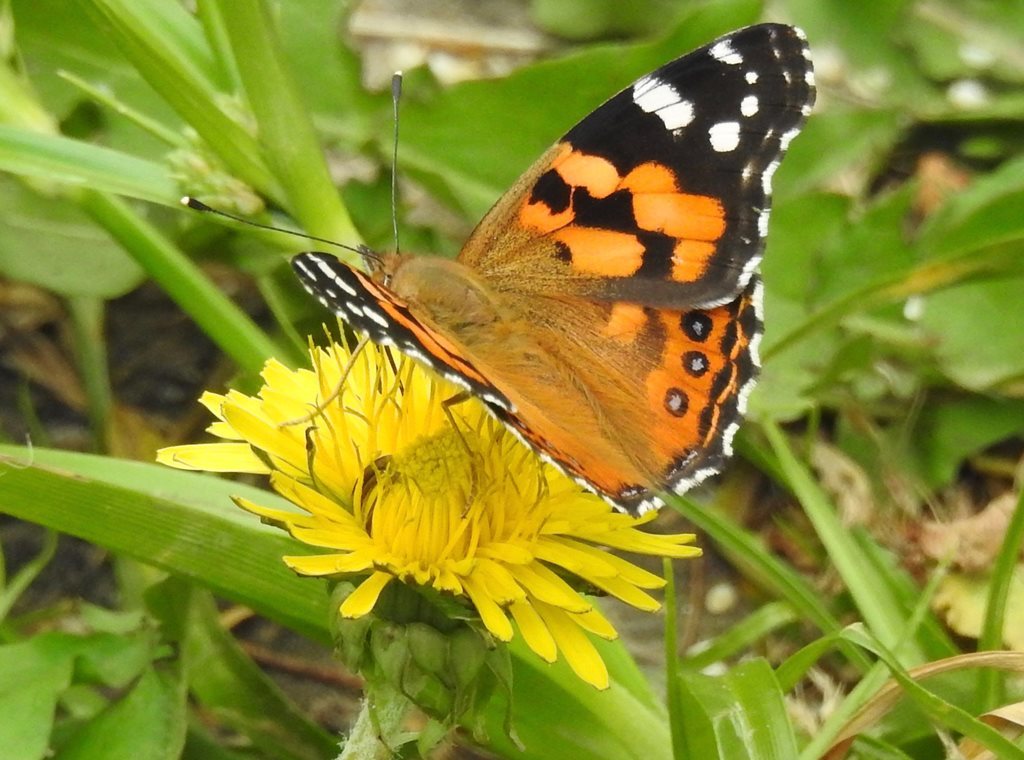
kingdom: Animalia
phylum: Arthropoda
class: Insecta
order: Lepidoptera
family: Nymphalidae
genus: Vanessa
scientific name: Vanessa kershawi
